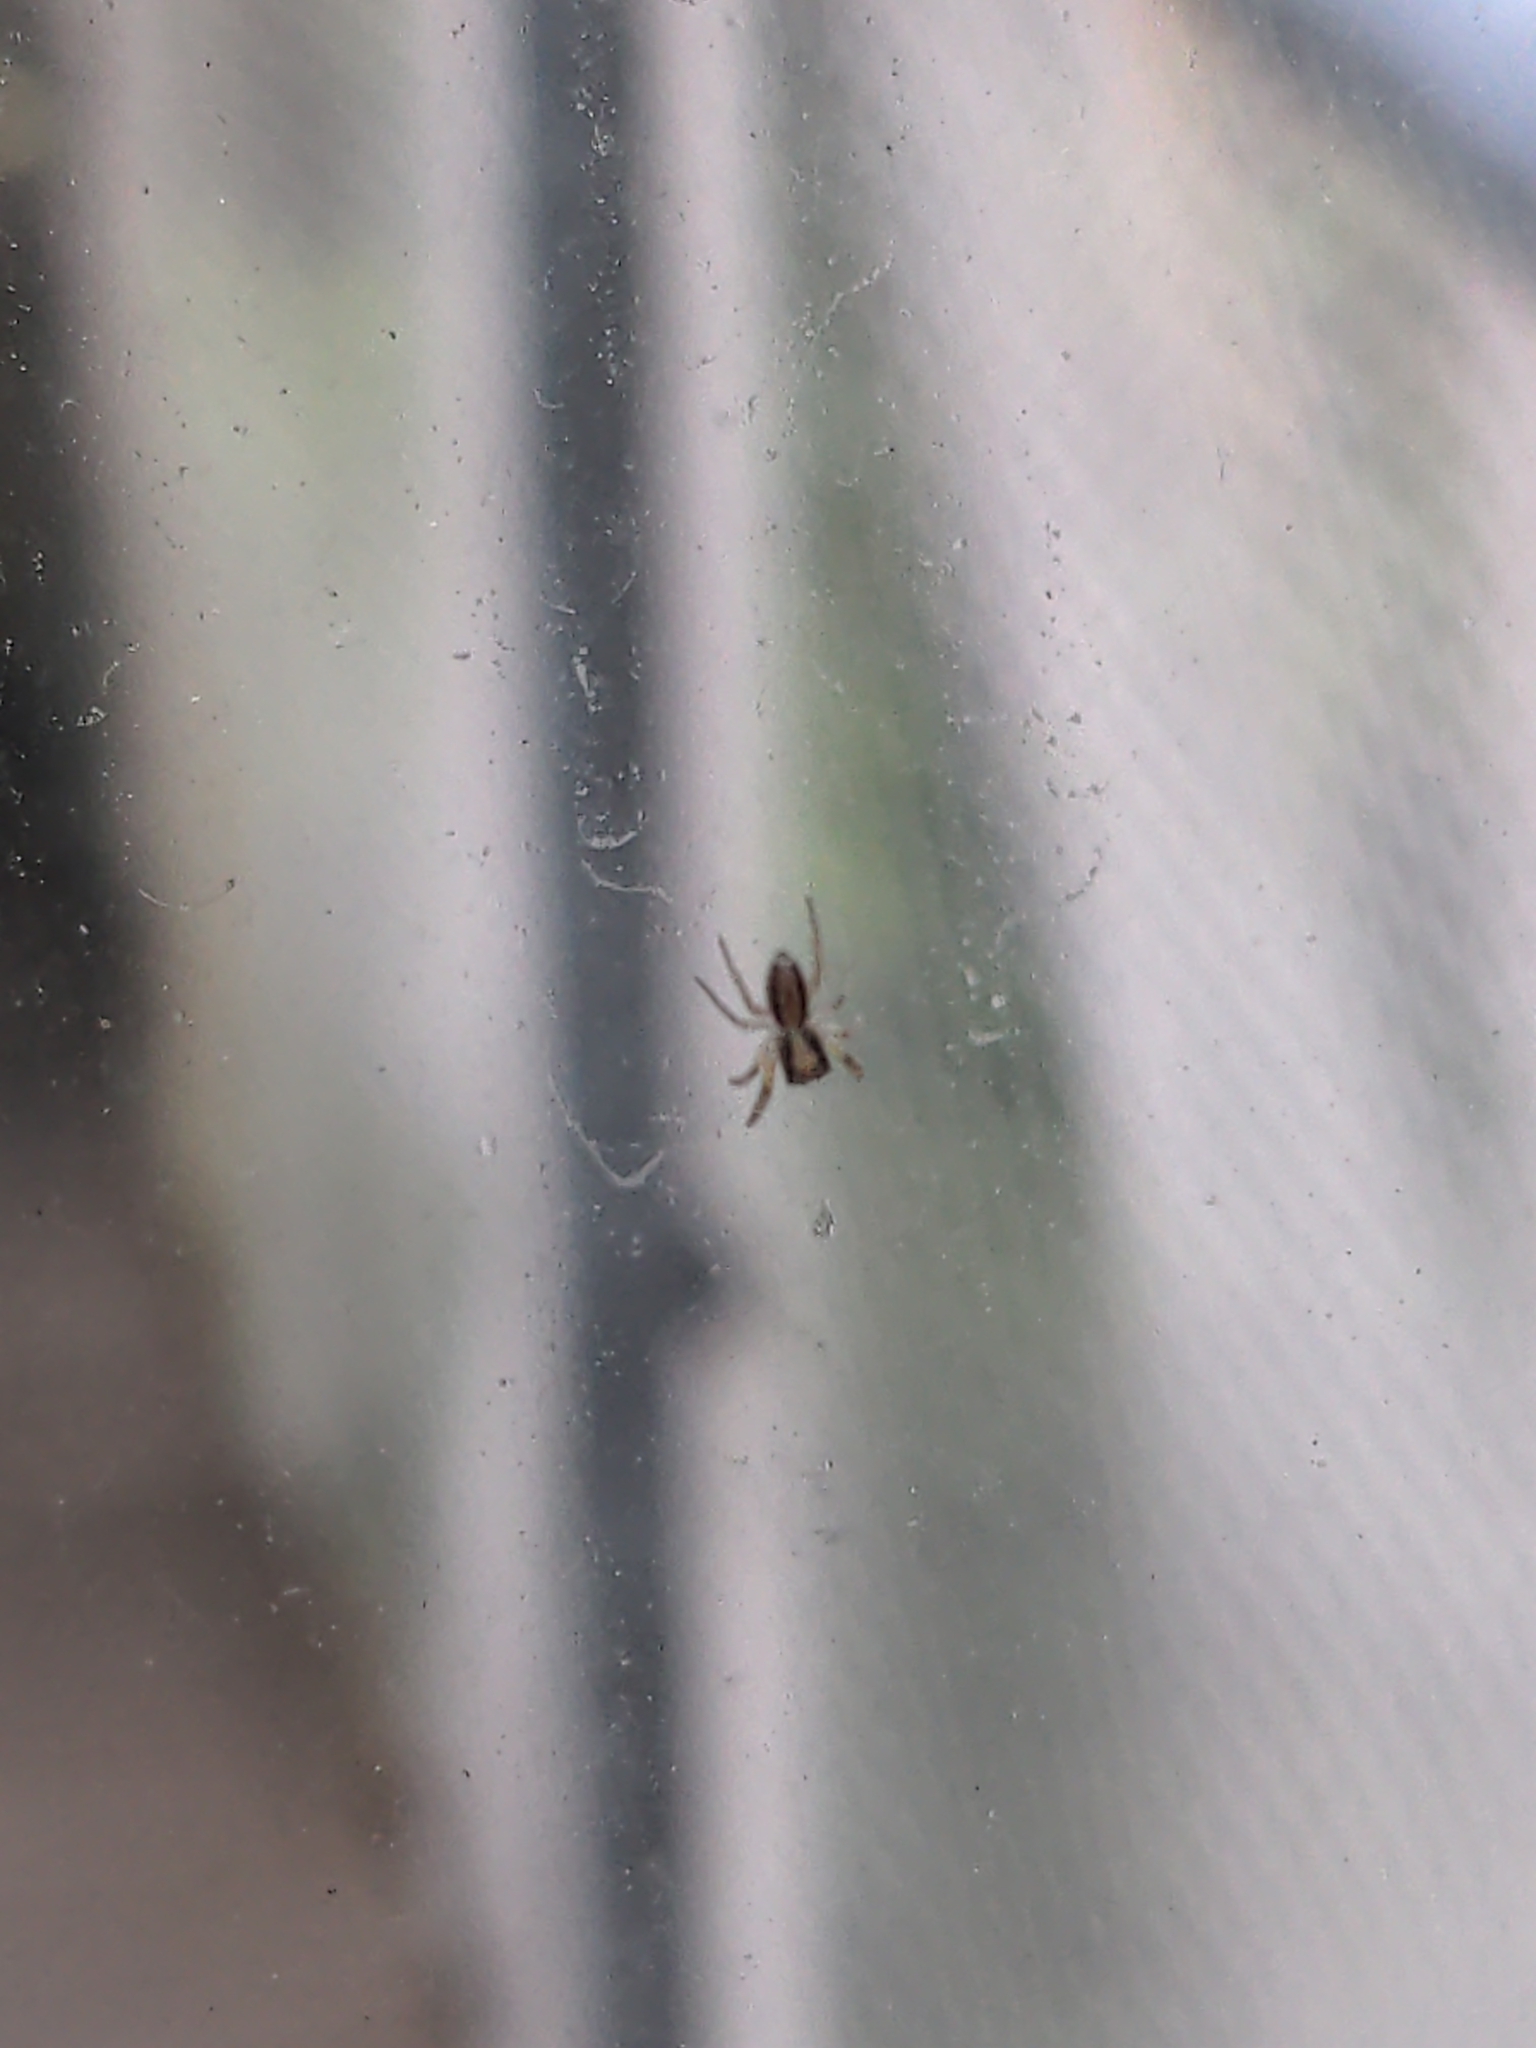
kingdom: Animalia
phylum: Arthropoda
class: Arachnida
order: Araneae
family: Salticidae
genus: Trite
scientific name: Trite planiceps
